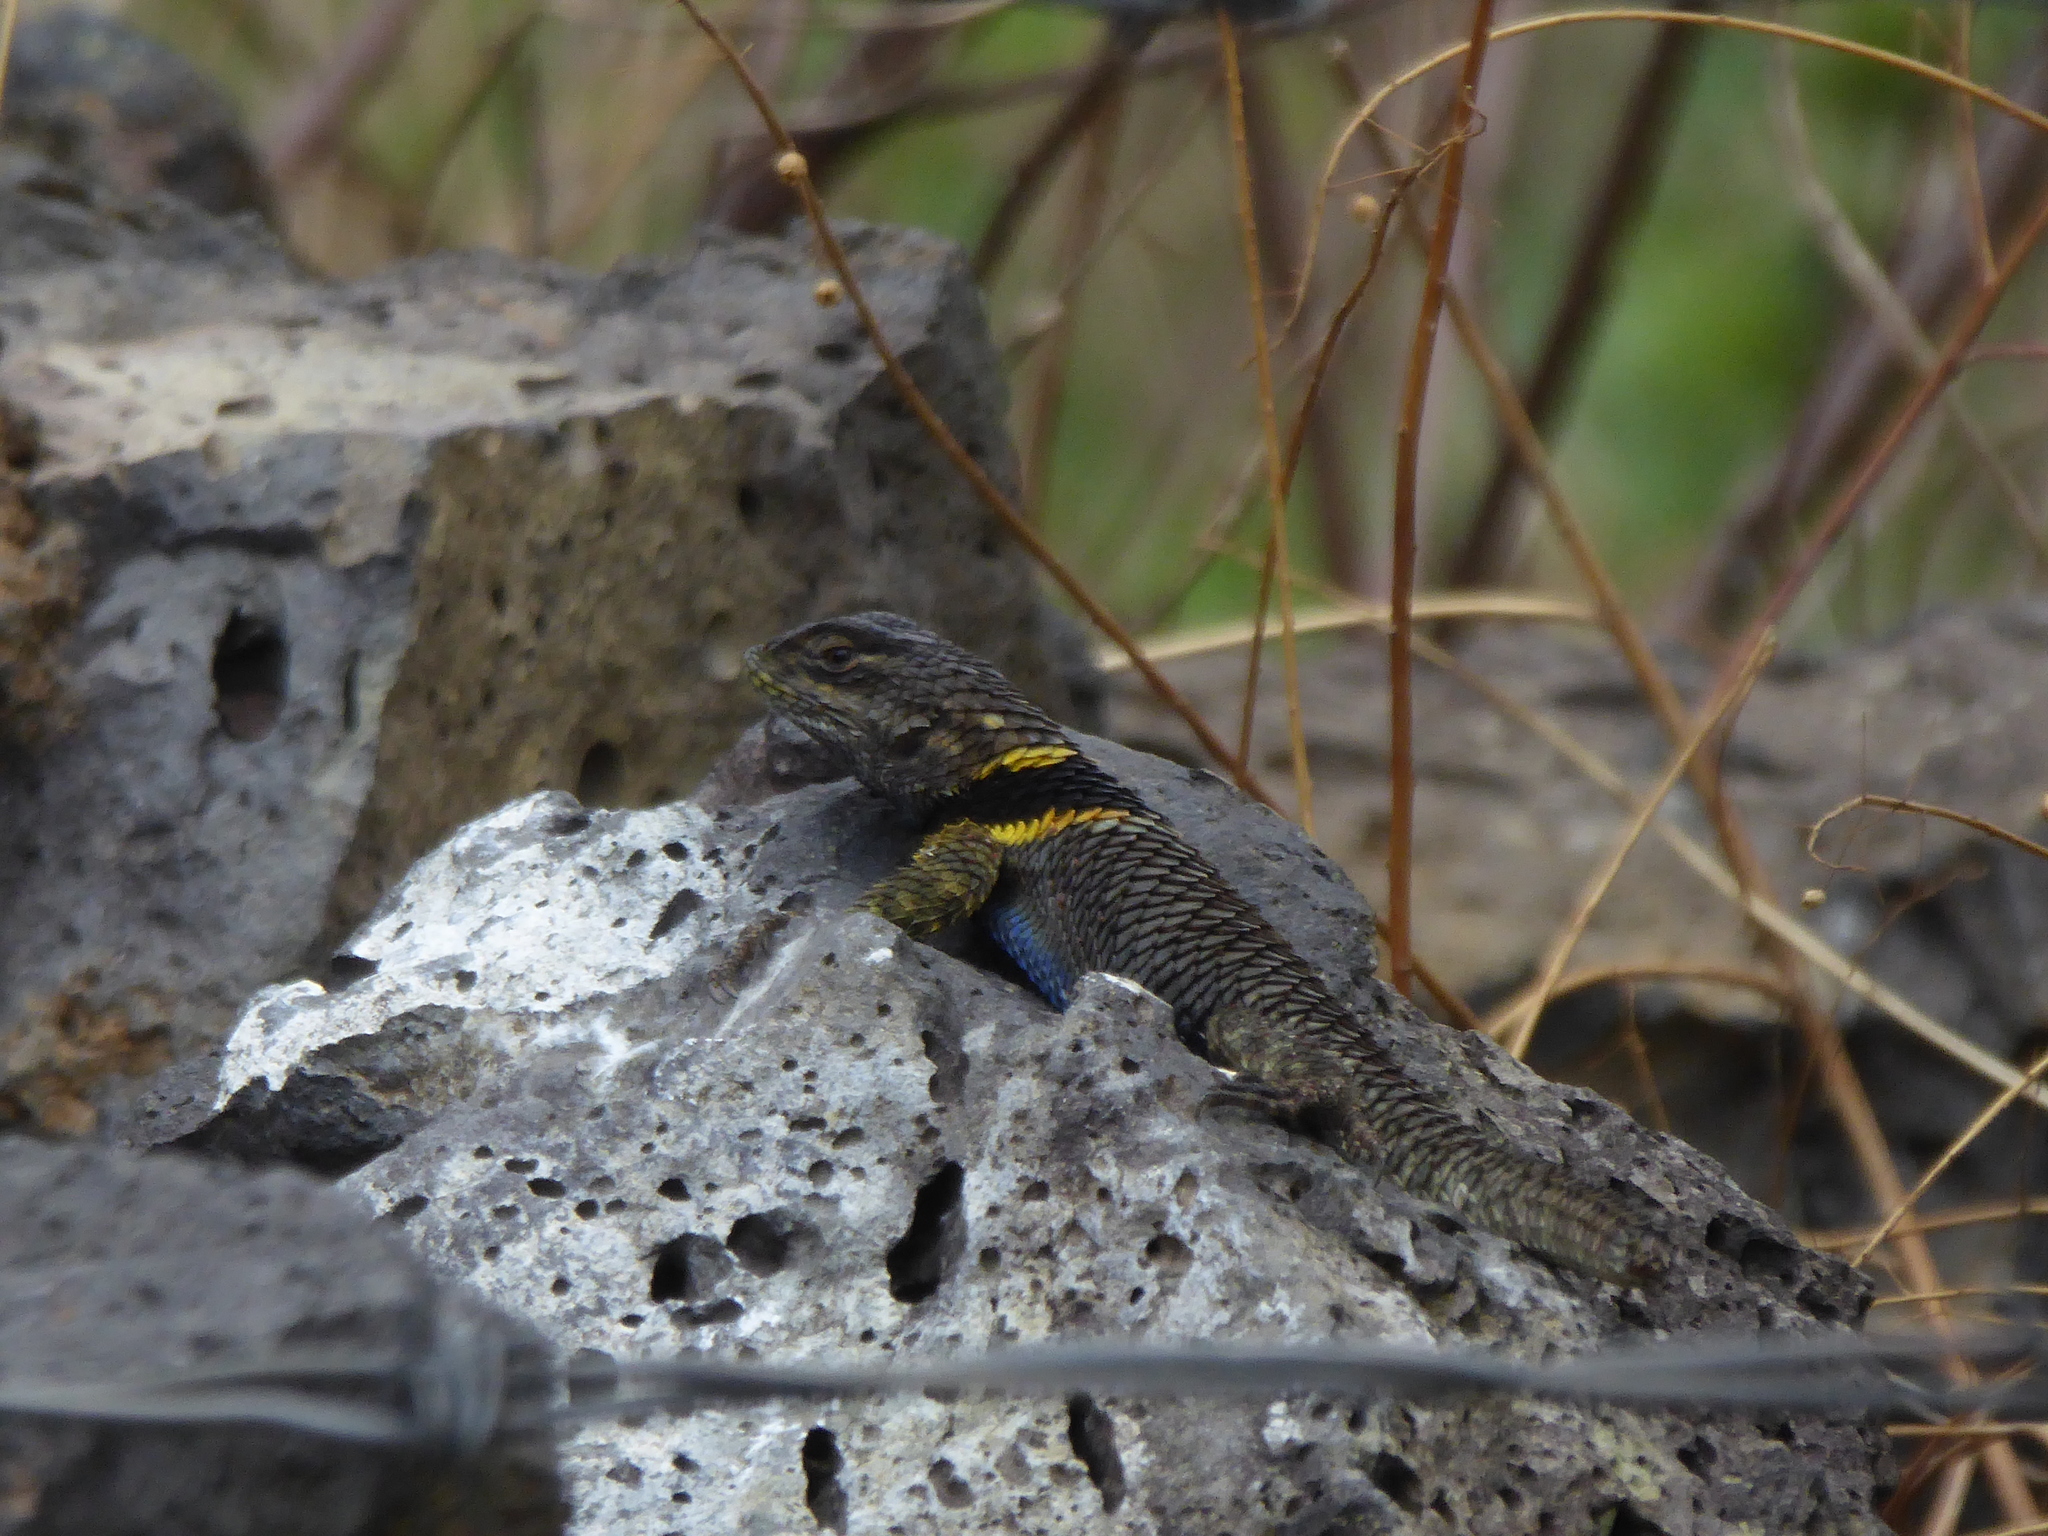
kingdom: Animalia
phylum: Chordata
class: Squamata
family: Phrynosomatidae
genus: Sceloporus
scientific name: Sceloporus torquatus
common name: Central plateau torquate lizard [melanogaster]
